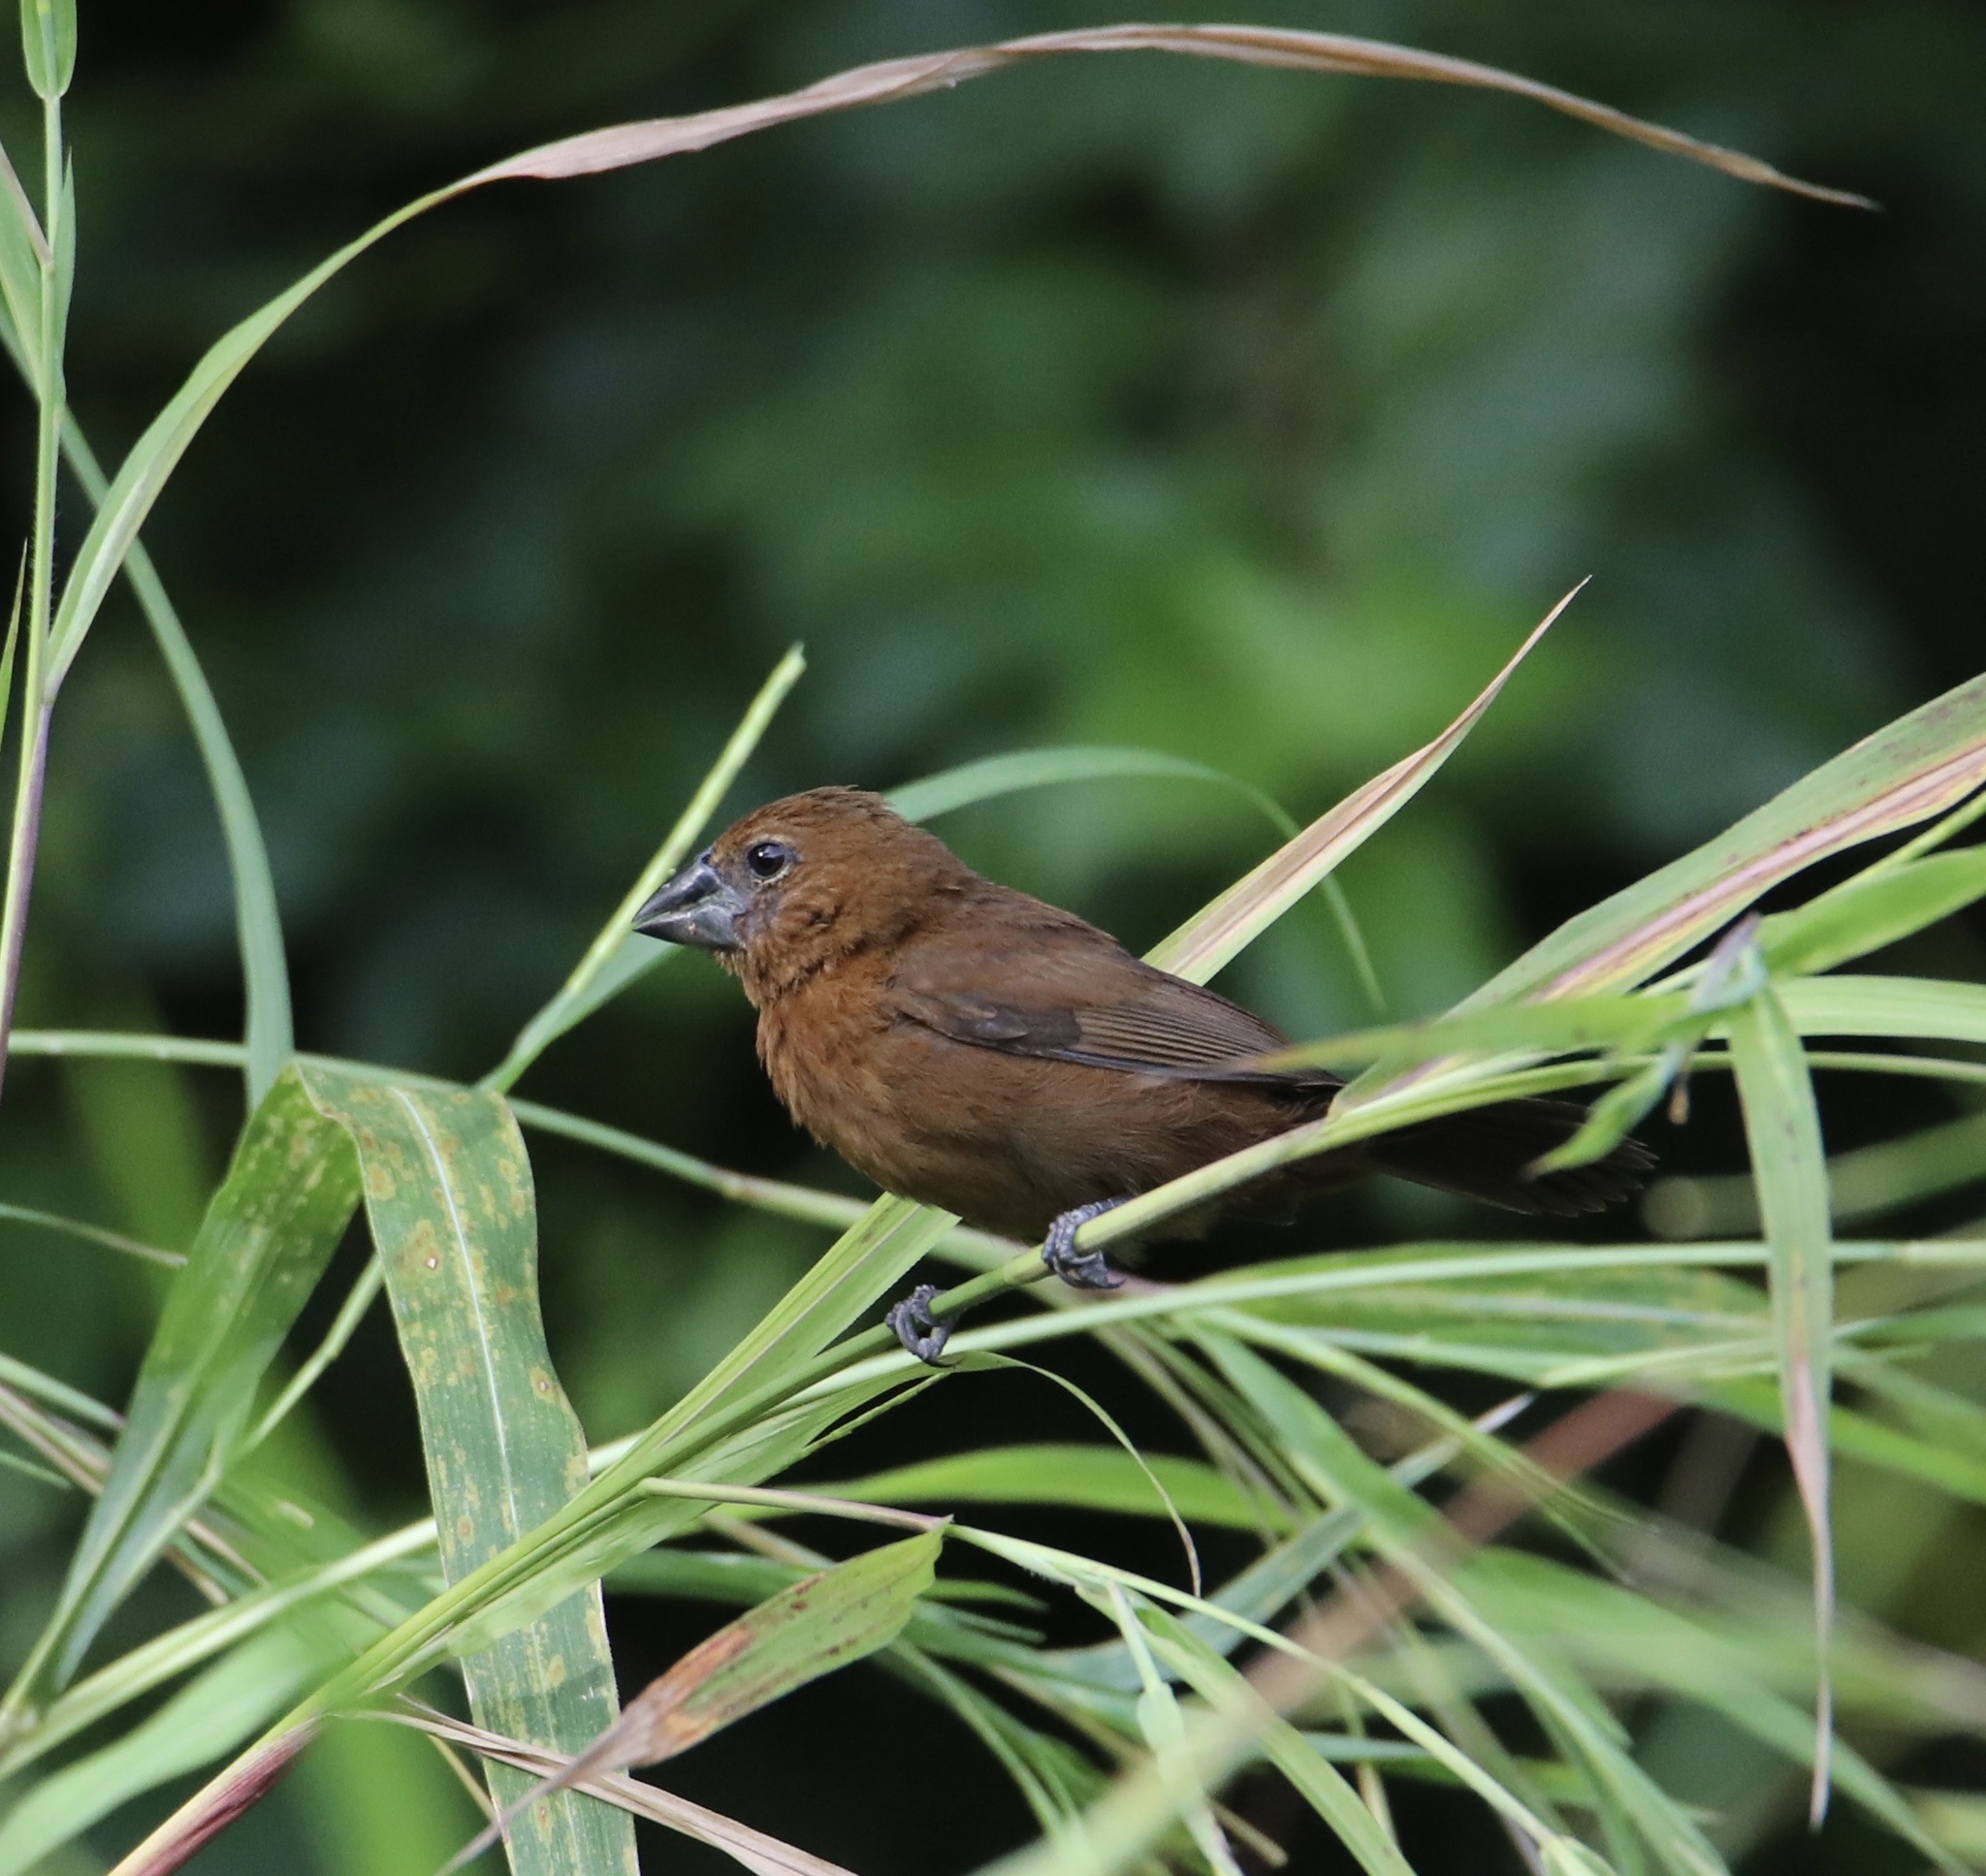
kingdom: Animalia
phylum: Chordata
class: Aves
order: Passeriformes
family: Cardinalidae
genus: Cyanocompsa
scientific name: Cyanocompsa cyanoides
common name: Blue-black grosbeak
